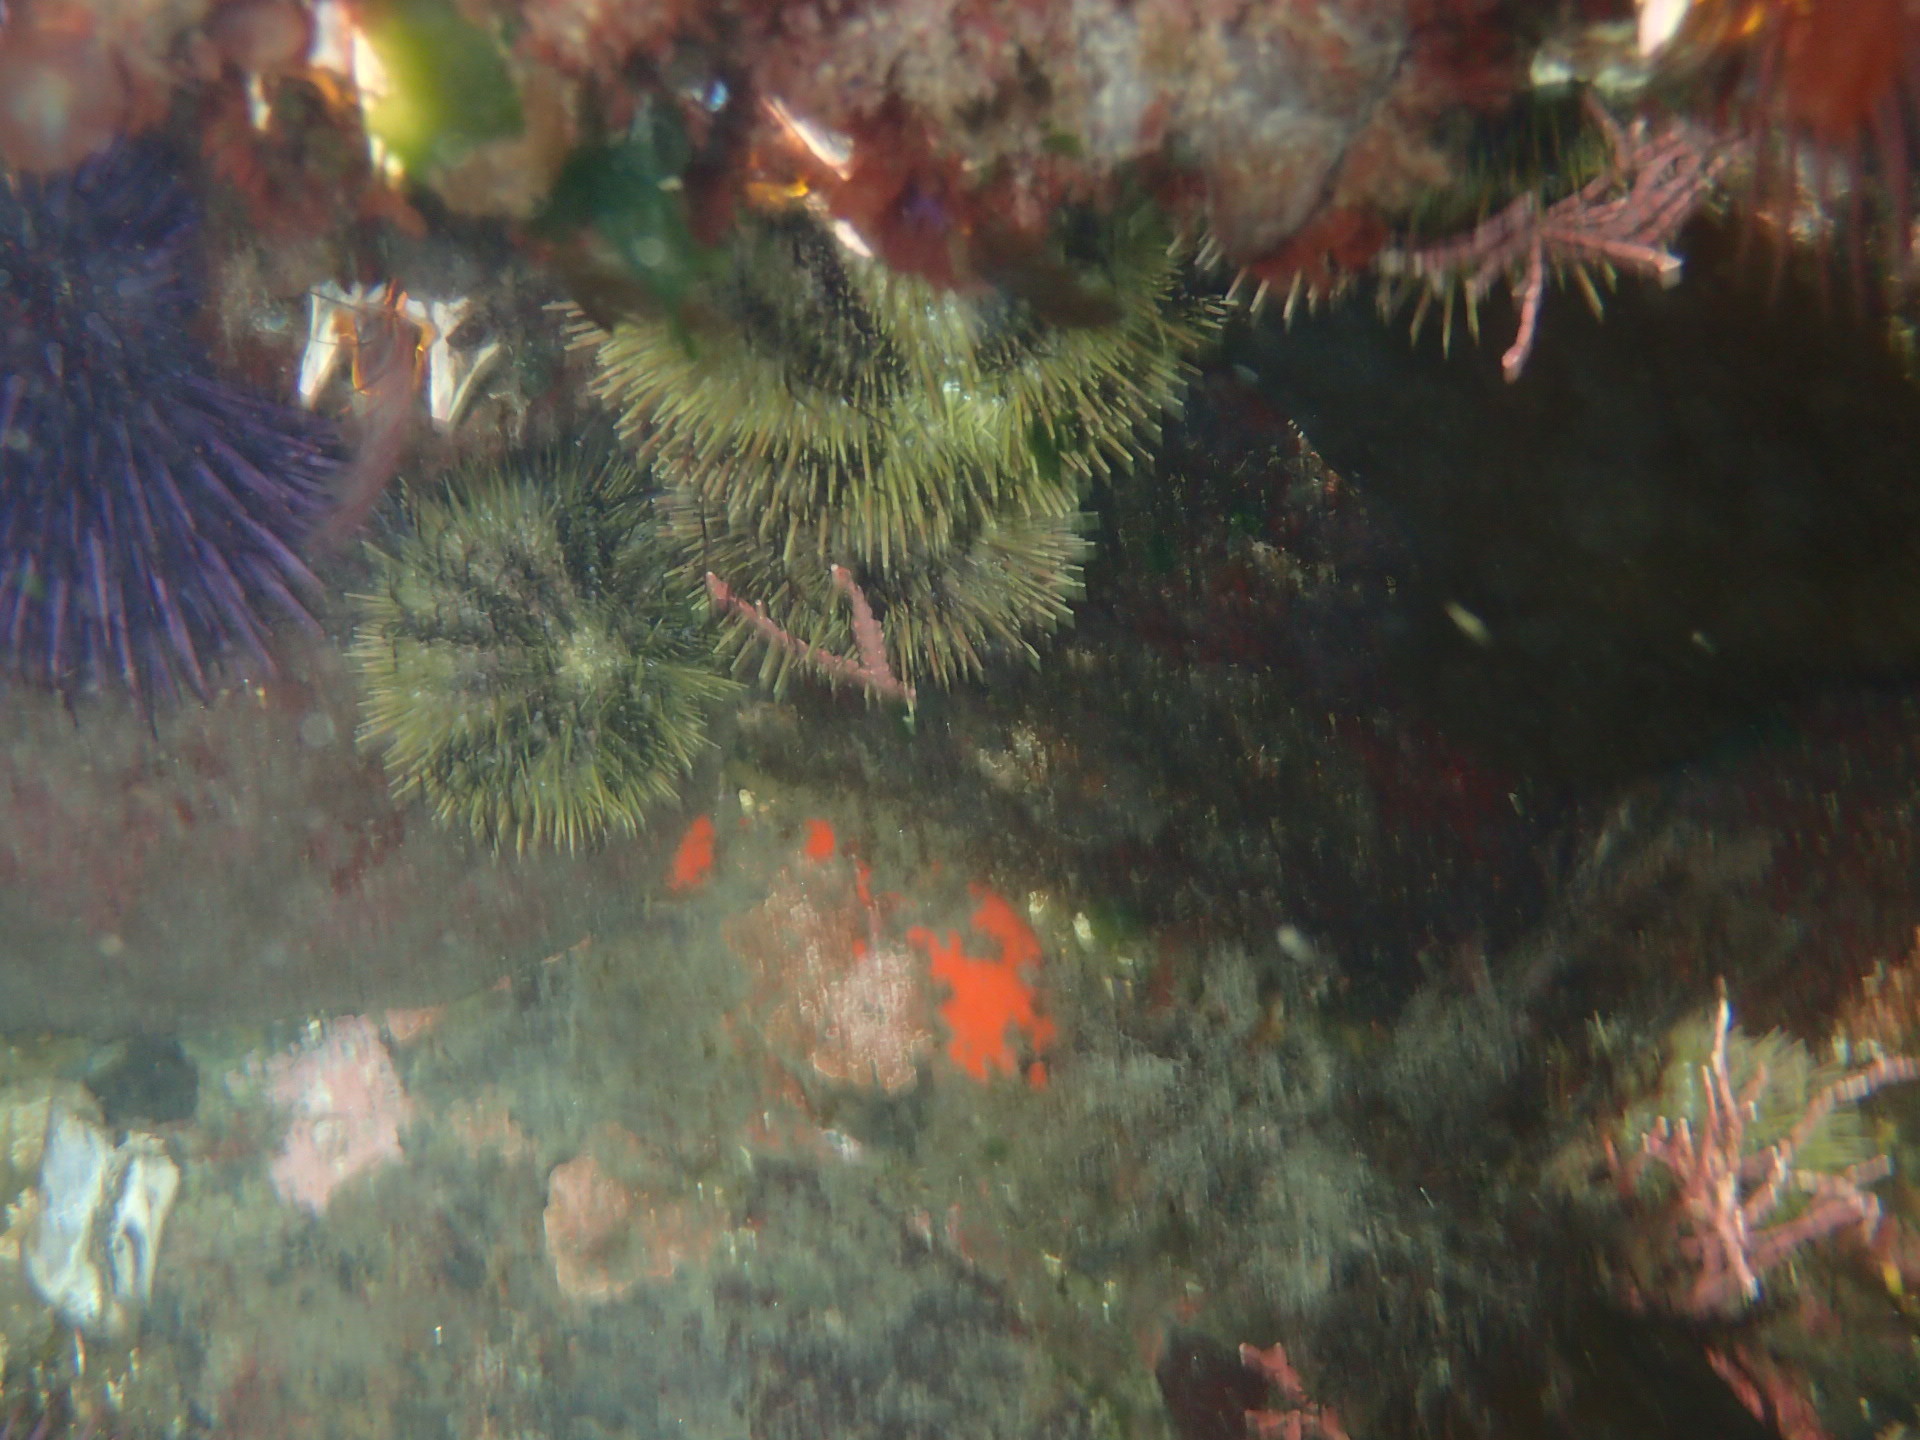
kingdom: Animalia
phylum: Echinodermata
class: Echinoidea
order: Camarodonta
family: Strongylocentrotidae
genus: Strongylocentrotus
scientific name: Strongylocentrotus droebachiensis
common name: Northern sea urchin
